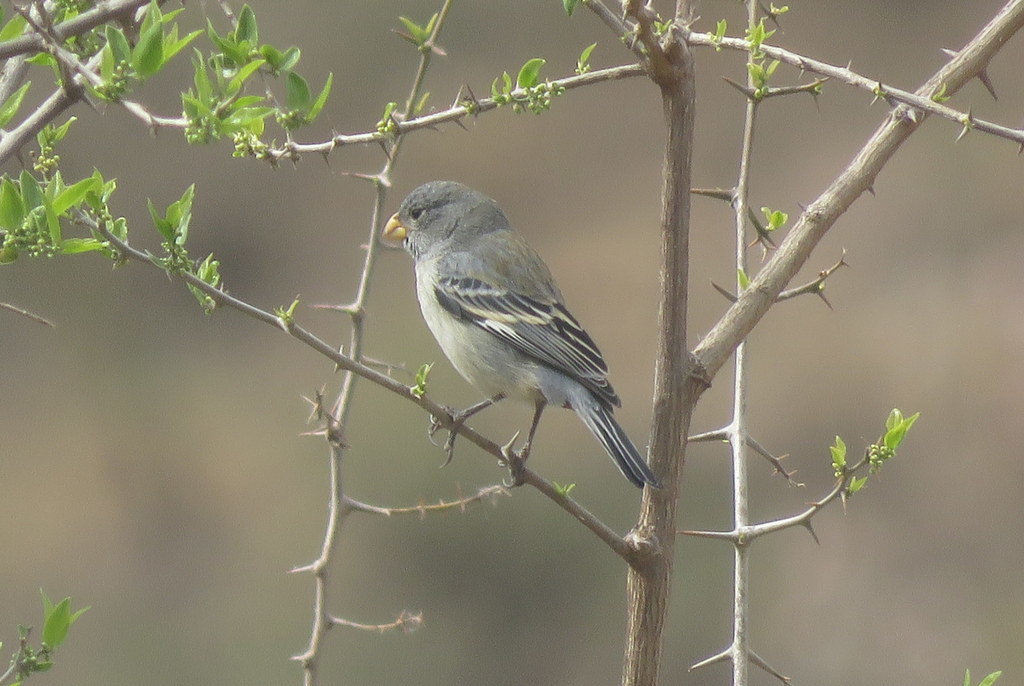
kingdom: Animalia
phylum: Chordata
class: Aves
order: Passeriformes
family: Thraupidae
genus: Catamenia
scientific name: Catamenia analis
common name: Band-tailed seedeater
